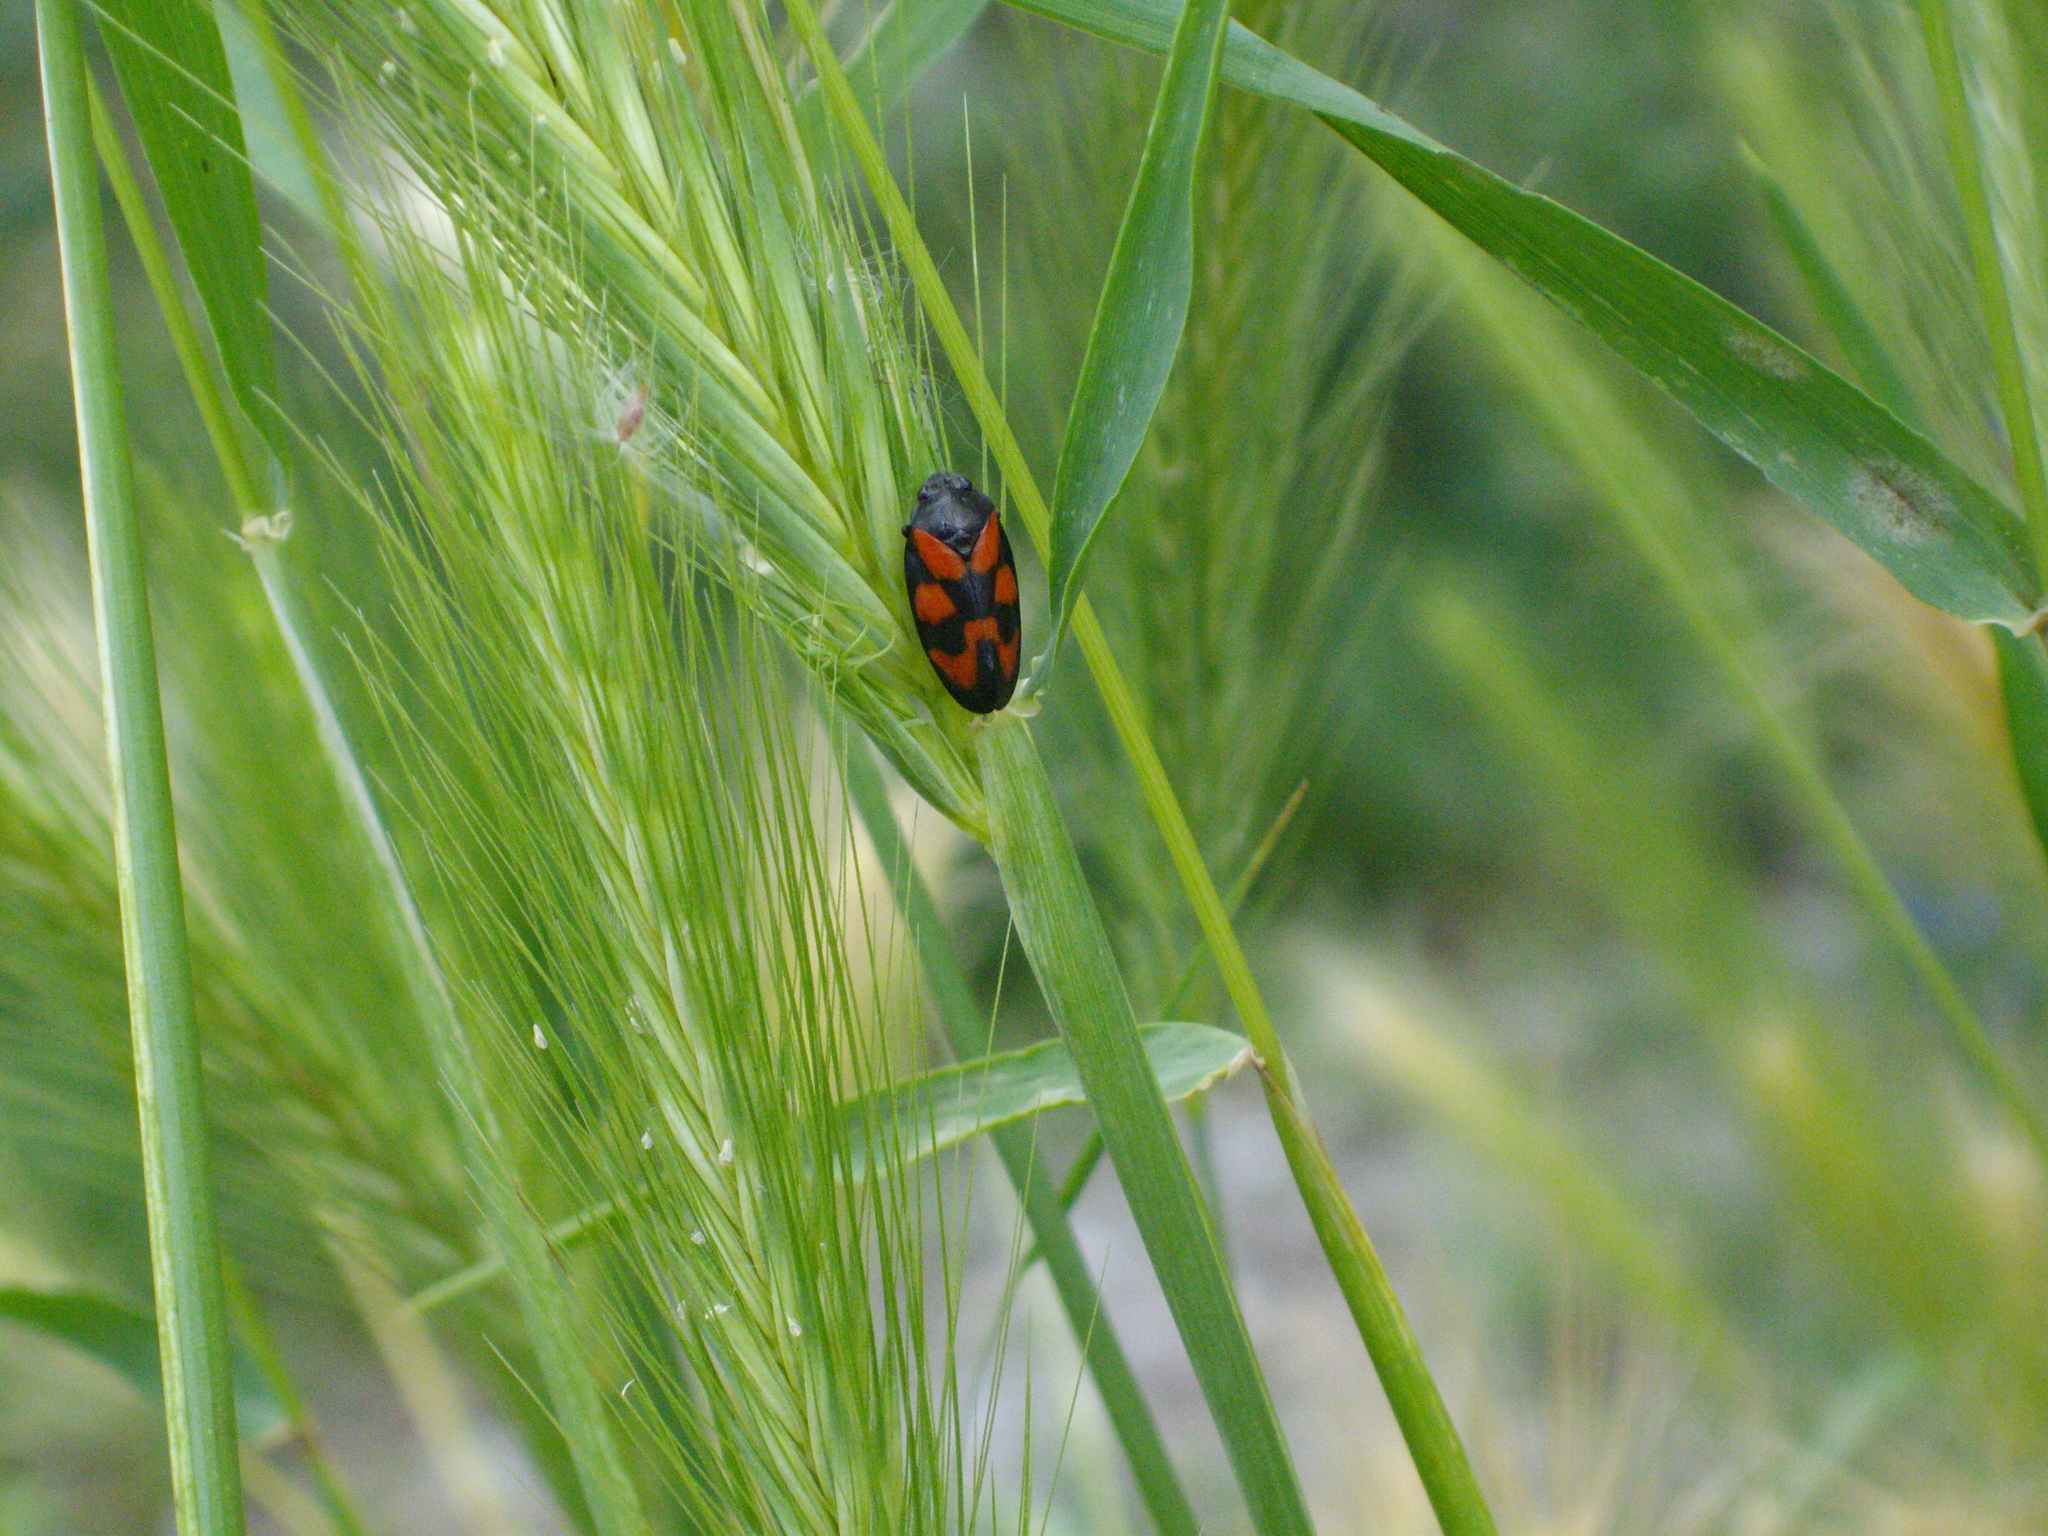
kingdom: Animalia
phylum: Arthropoda
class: Insecta
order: Hemiptera
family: Cercopidae
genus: Cercopis
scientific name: Cercopis vulnerata
